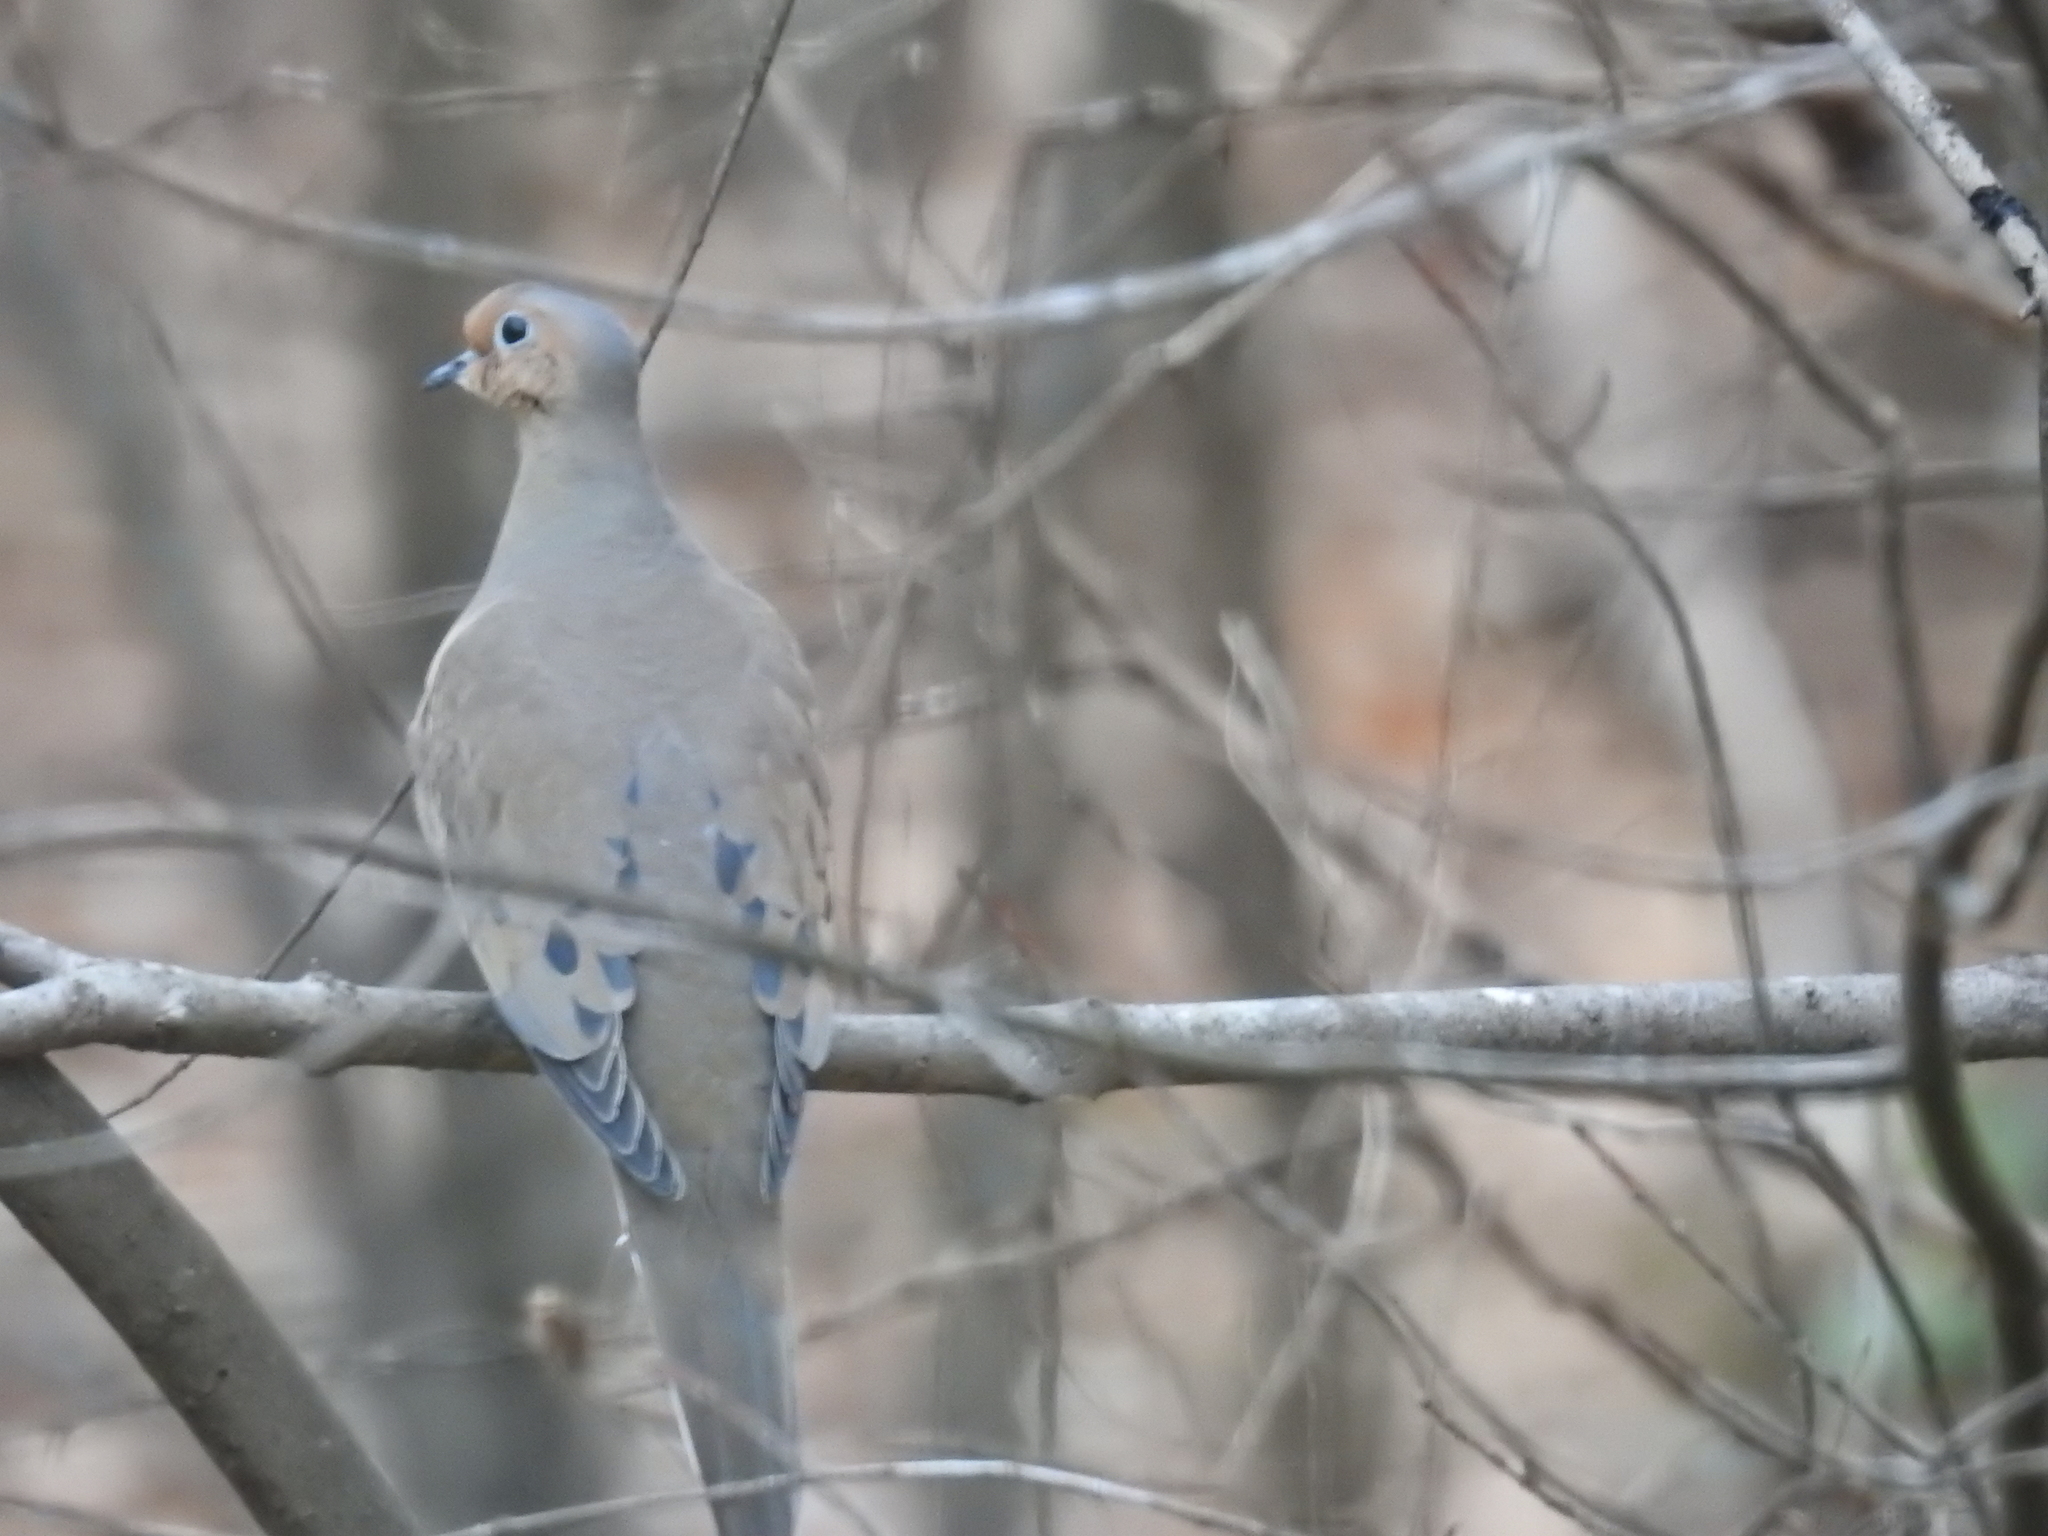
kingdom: Animalia
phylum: Chordata
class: Aves
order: Columbiformes
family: Columbidae
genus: Zenaida
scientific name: Zenaida macroura
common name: Mourning dove
